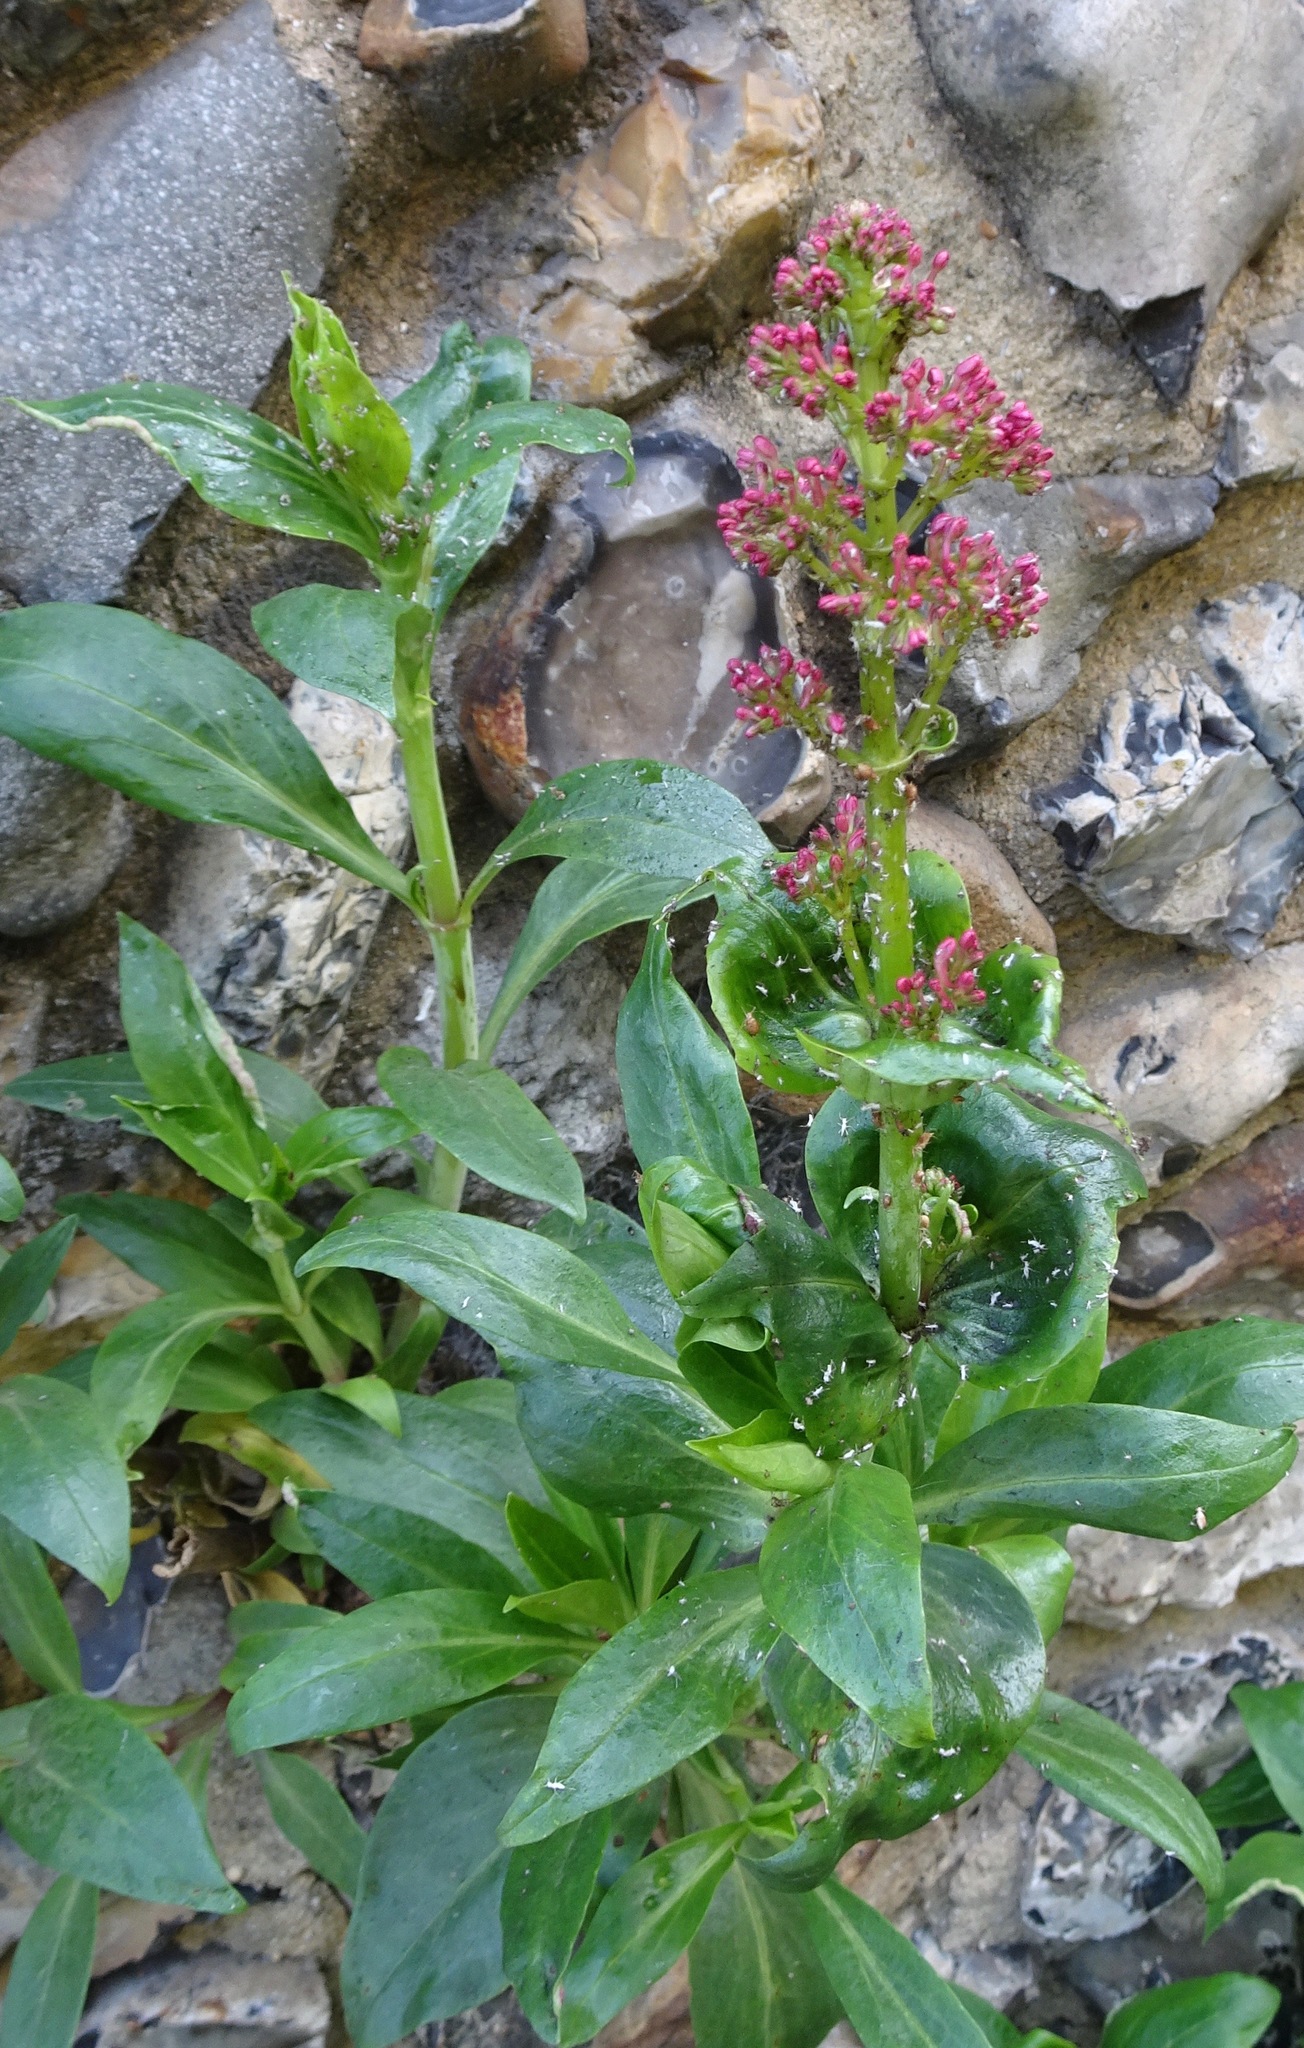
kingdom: Plantae
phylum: Tracheophyta
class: Magnoliopsida
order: Dipsacales
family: Caprifoliaceae
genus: Centranthus
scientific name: Centranthus ruber
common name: Red valerian
